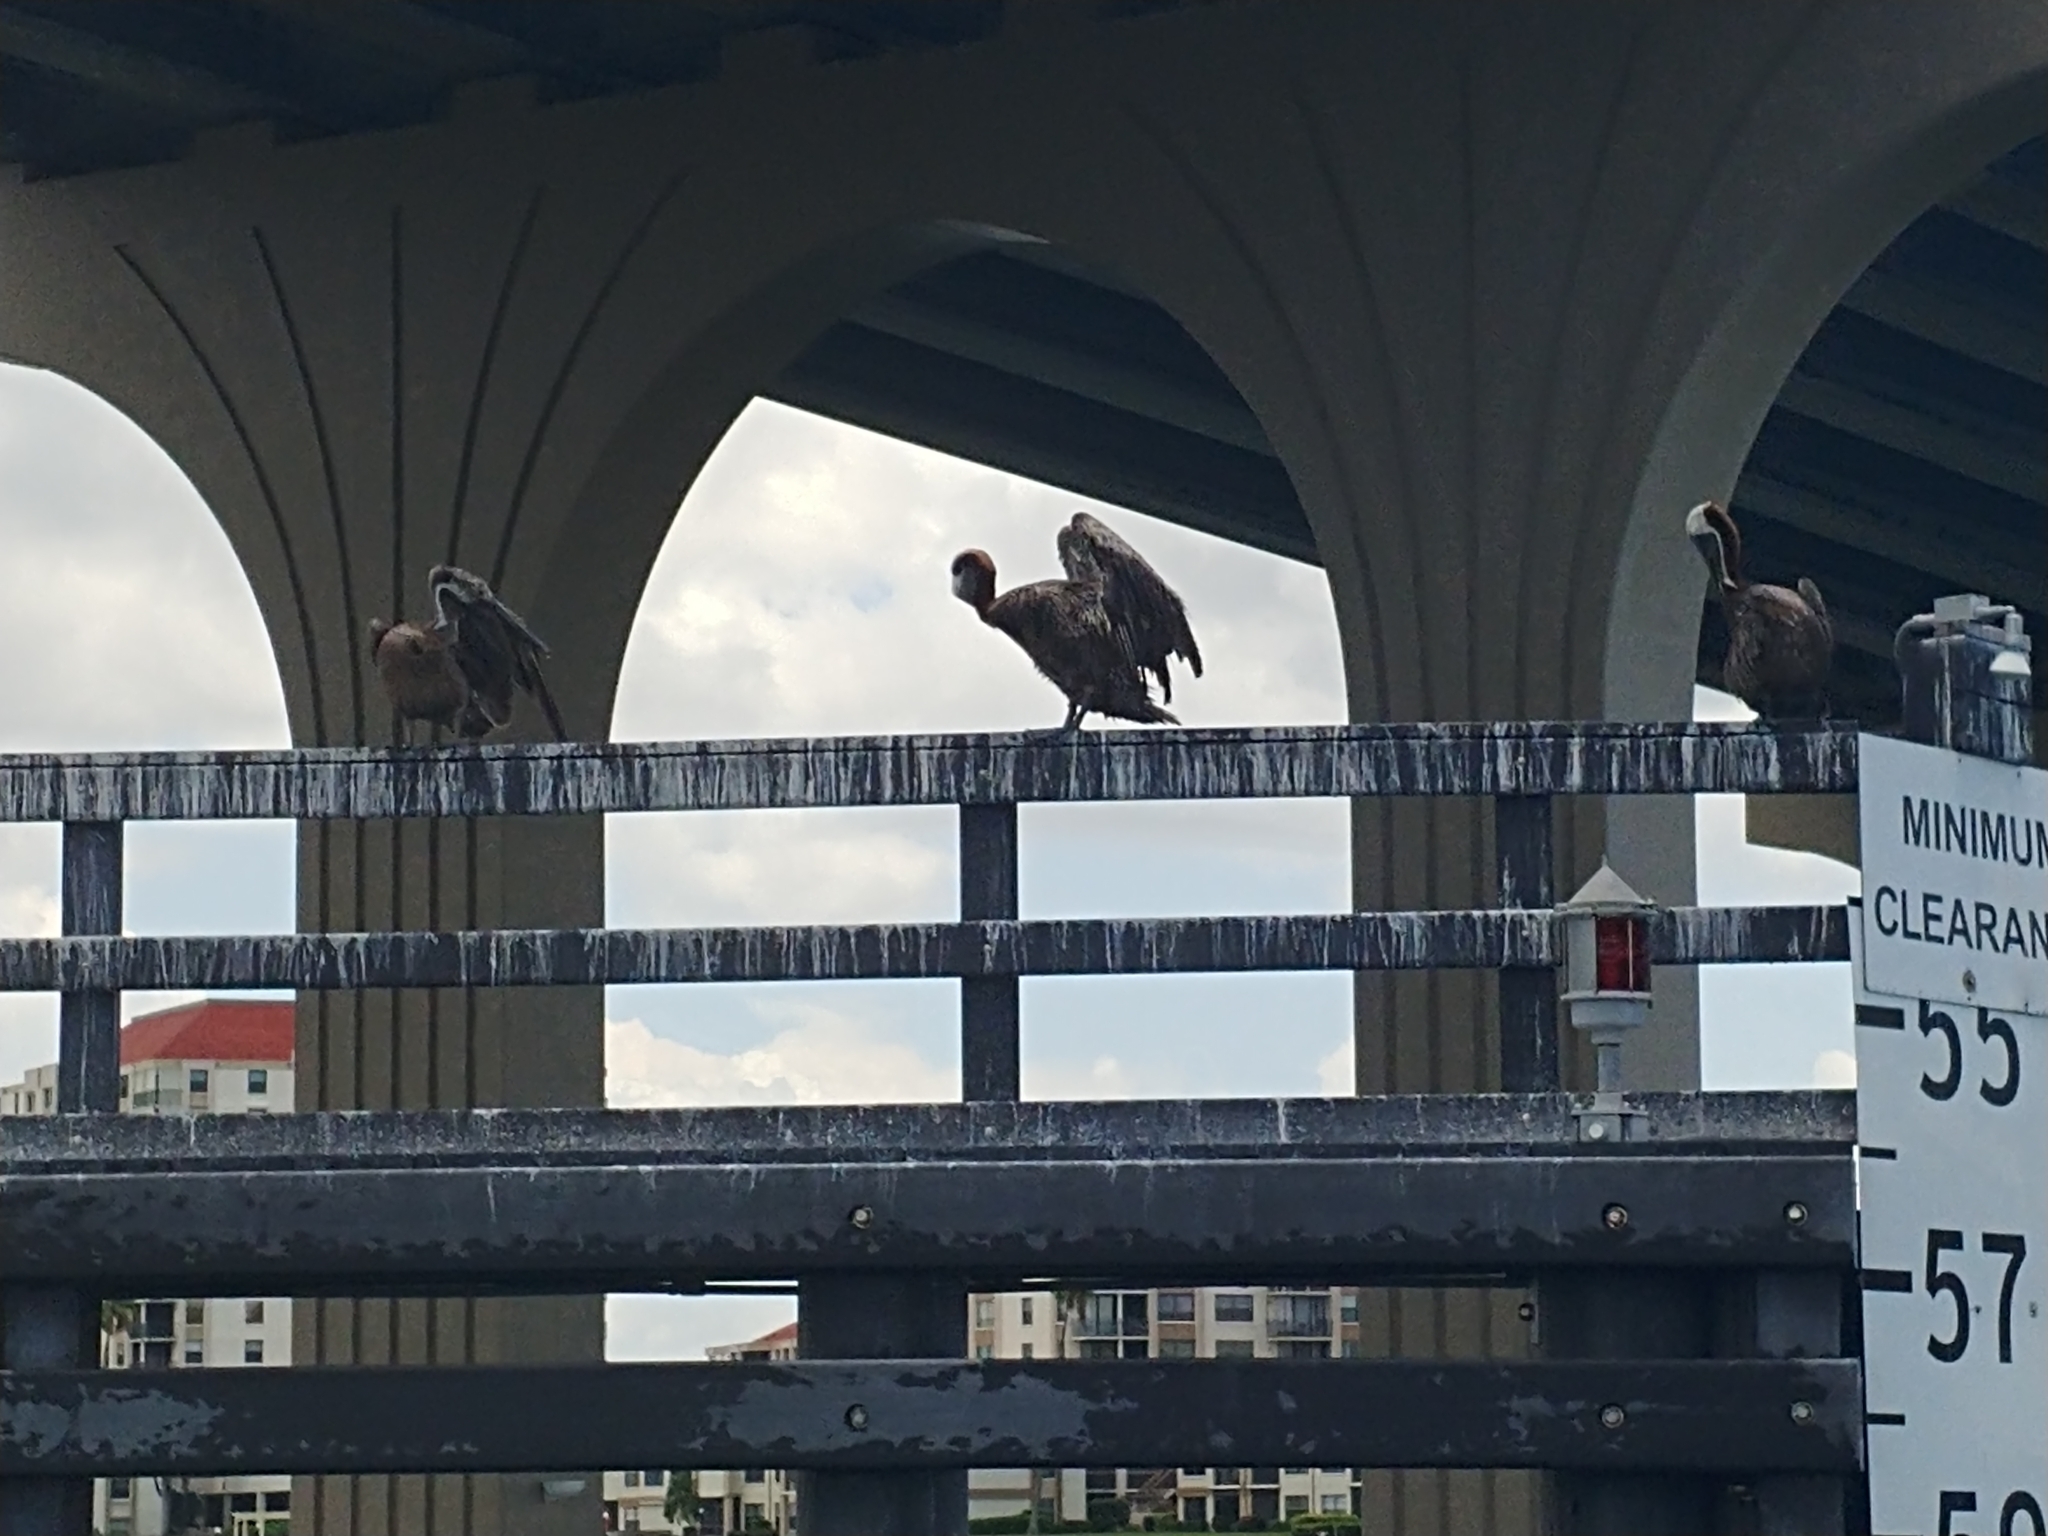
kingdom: Animalia
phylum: Chordata
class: Aves
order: Pelecaniformes
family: Pelecanidae
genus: Pelecanus
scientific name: Pelecanus occidentalis
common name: Brown pelican
